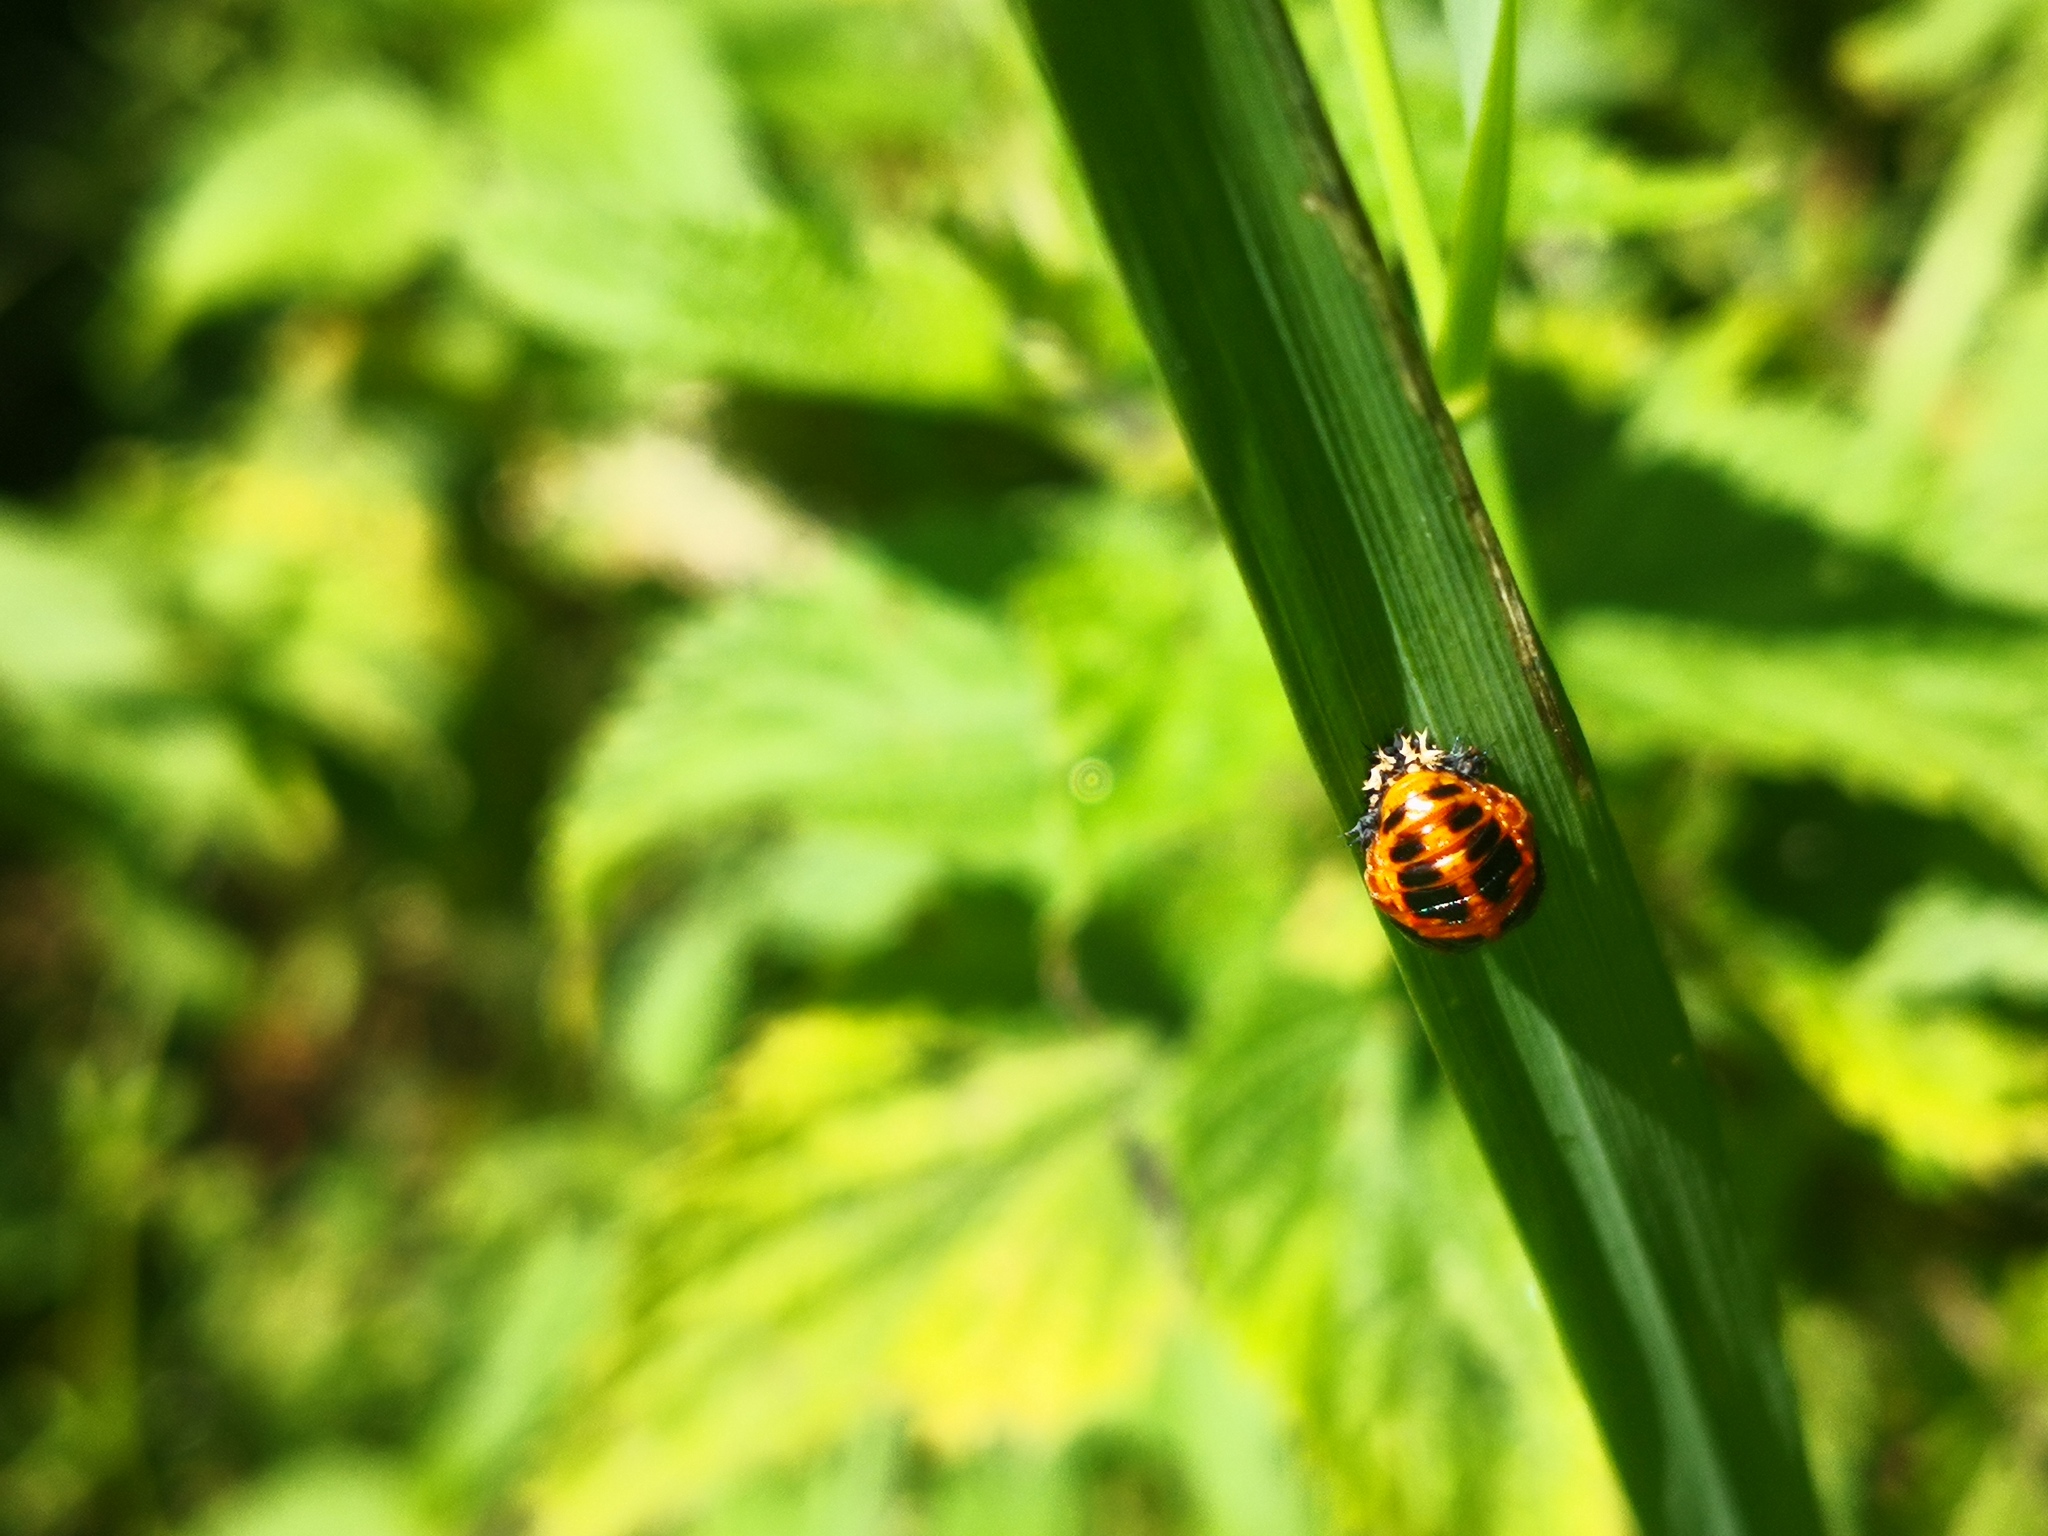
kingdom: Animalia
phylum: Arthropoda
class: Insecta
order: Coleoptera
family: Coccinellidae
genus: Harmonia
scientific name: Harmonia axyridis
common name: Harlequin ladybird
